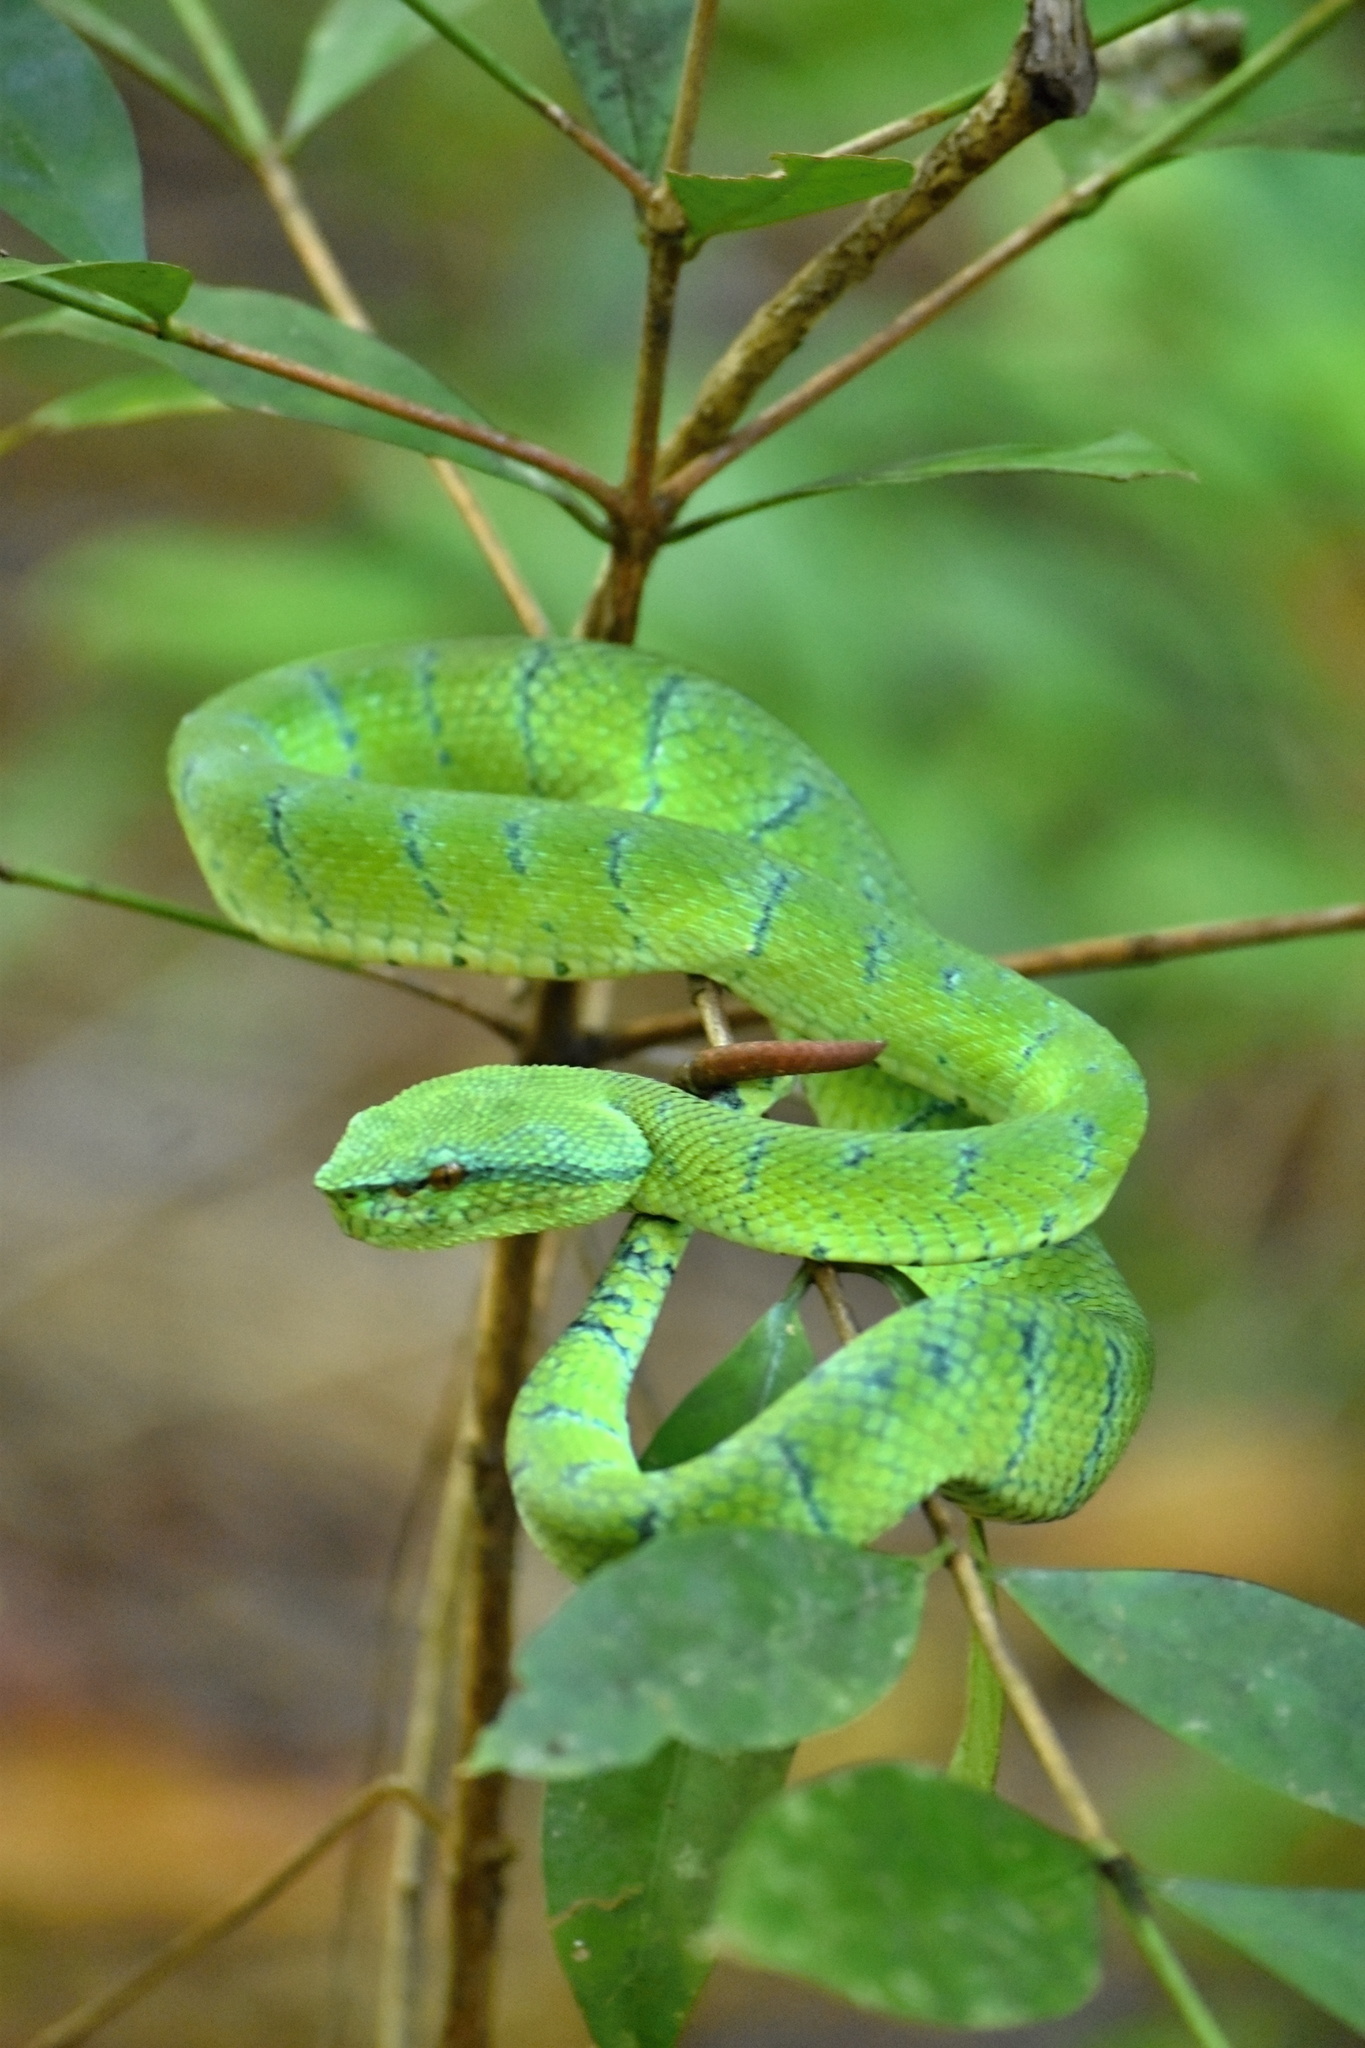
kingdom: Animalia
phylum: Chordata
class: Squamata
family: Viperidae
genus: Tropidolaemus
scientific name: Tropidolaemus subannulatus
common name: North philippine temple pitviper
